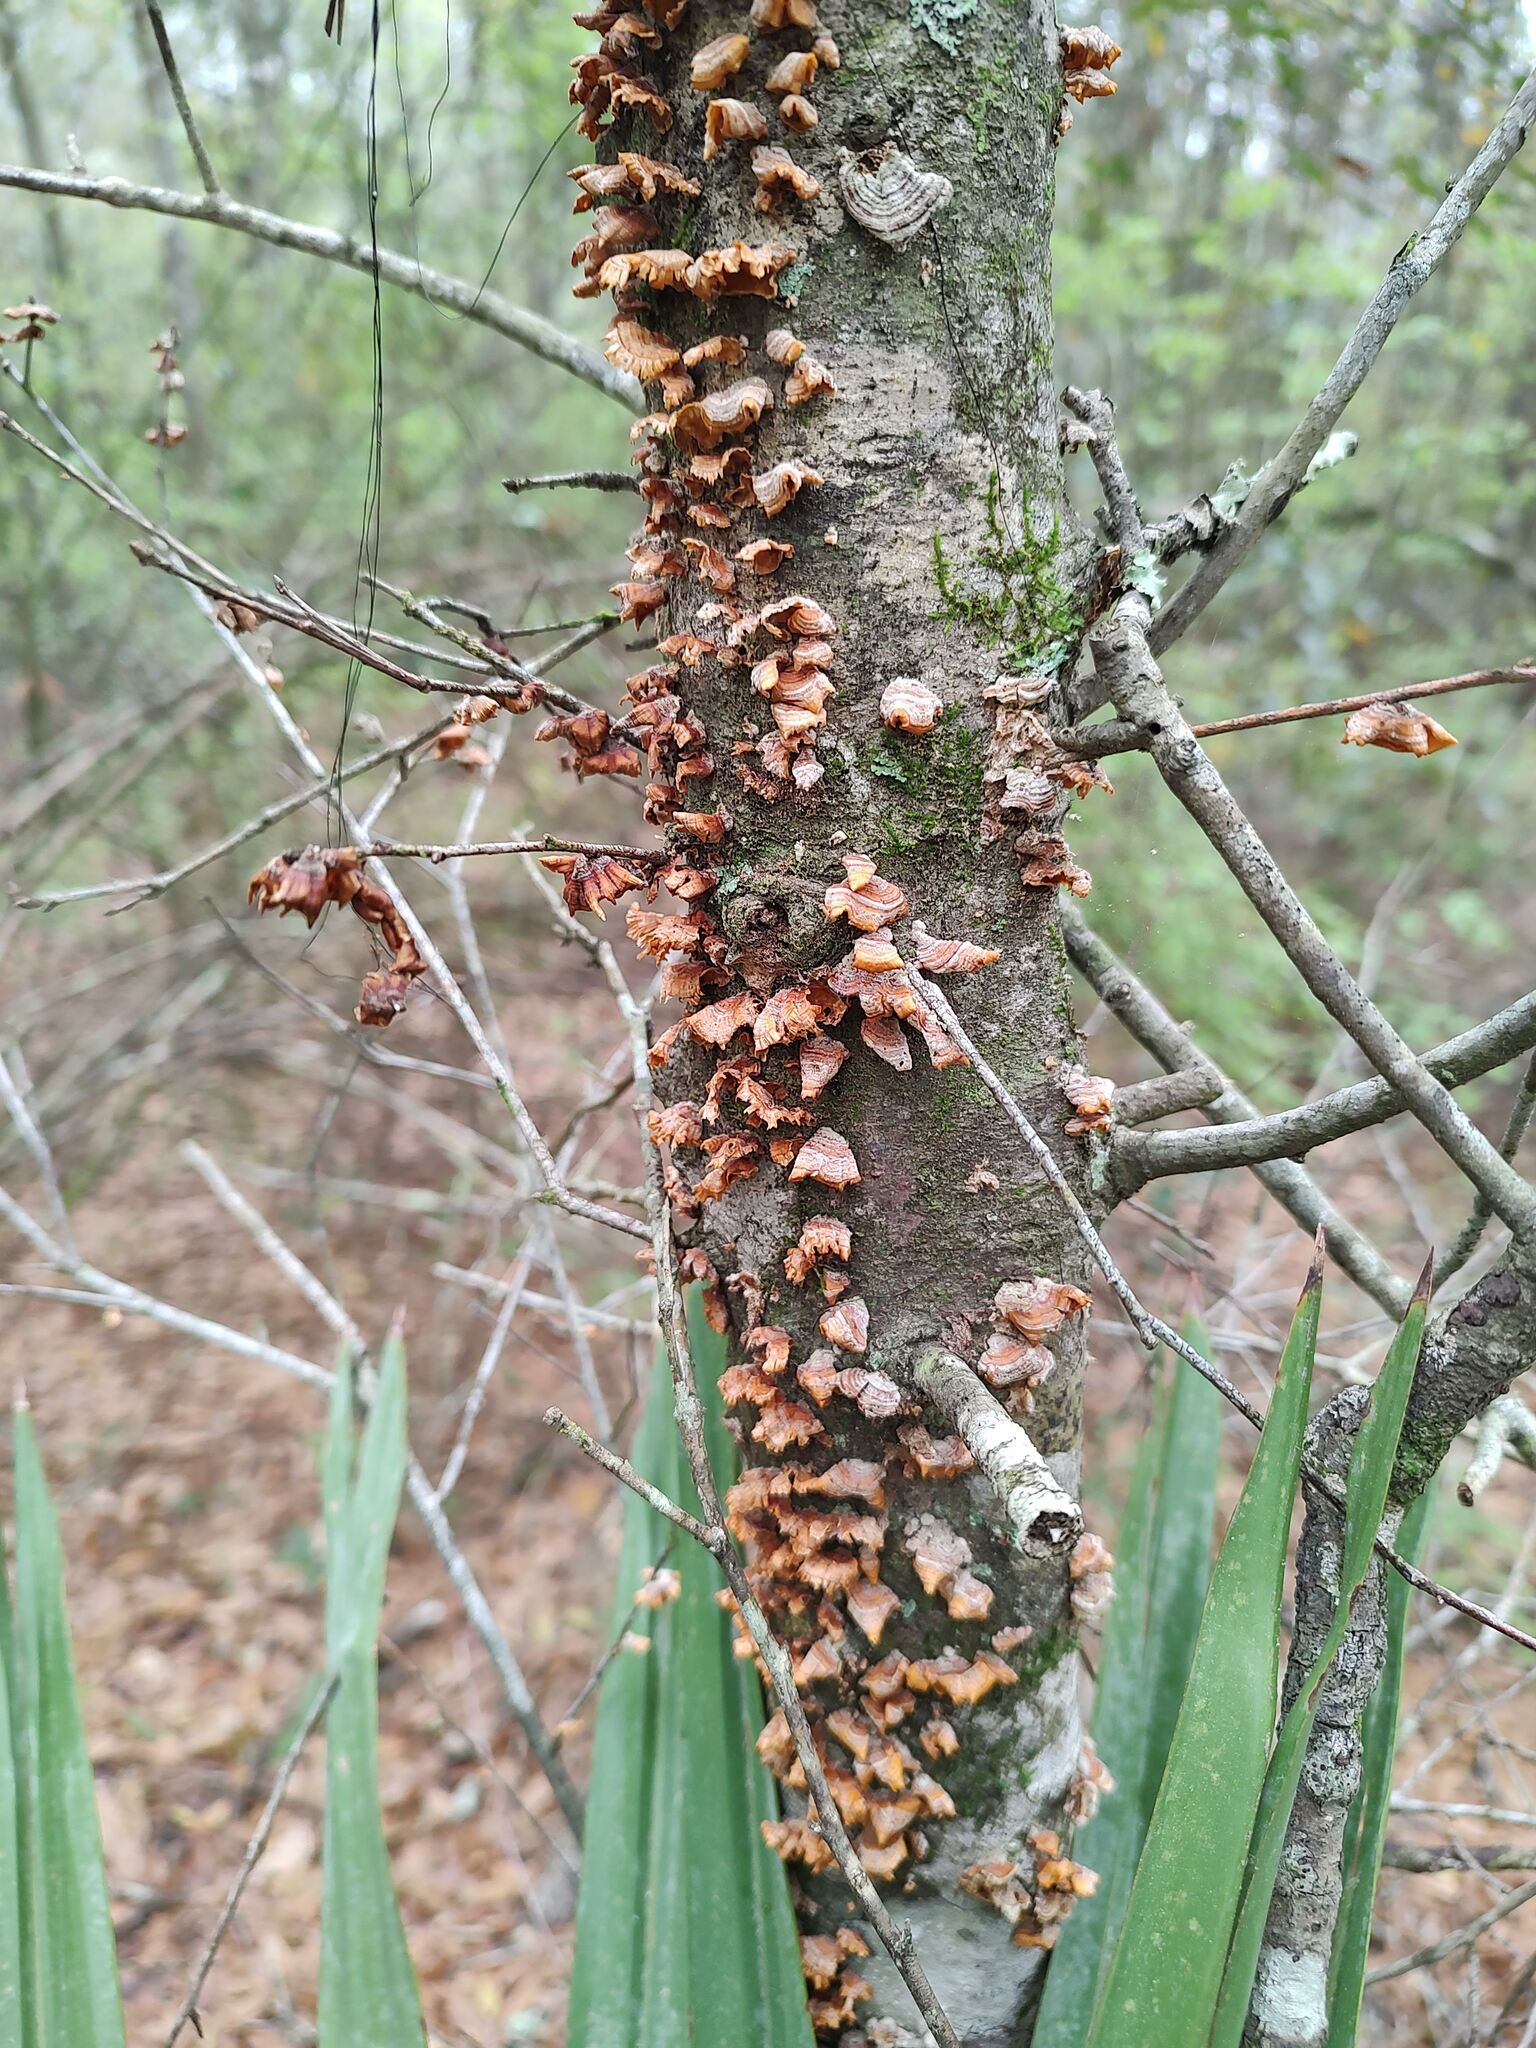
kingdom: Fungi
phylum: Basidiomycota
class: Agaricomycetes
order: Russulales
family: Stereaceae
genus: Stereum
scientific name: Stereum complicatum
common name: Crowded parchment
